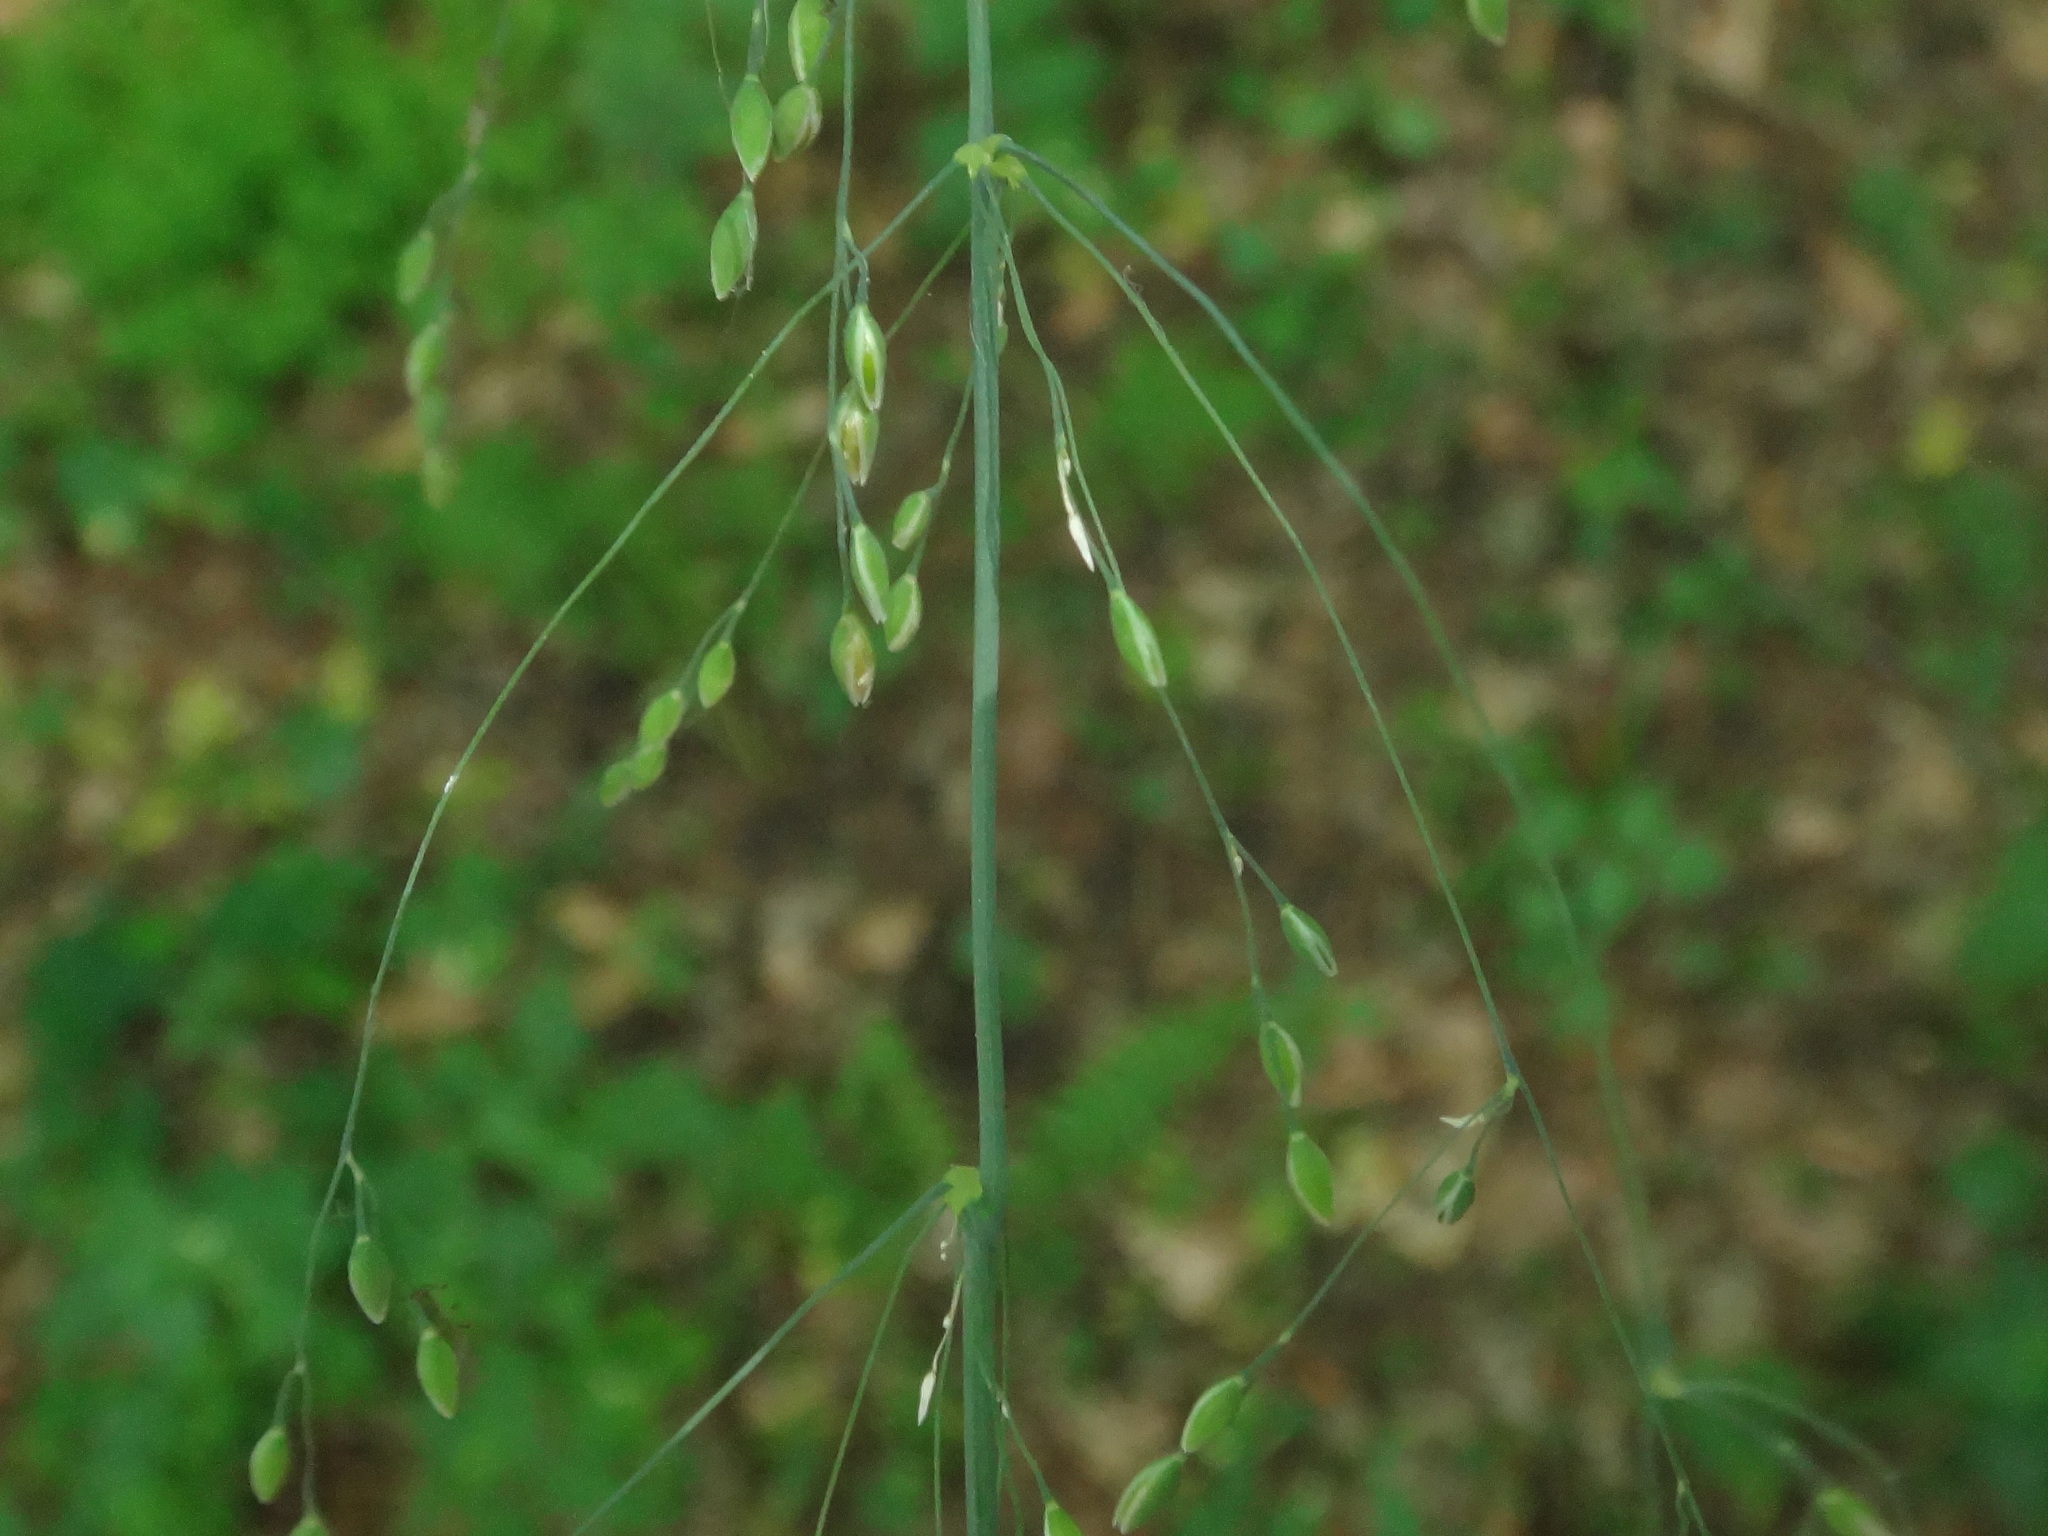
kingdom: Plantae
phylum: Tracheophyta
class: Liliopsida
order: Poales
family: Poaceae
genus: Milium
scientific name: Milium effusum
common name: Wood millet
